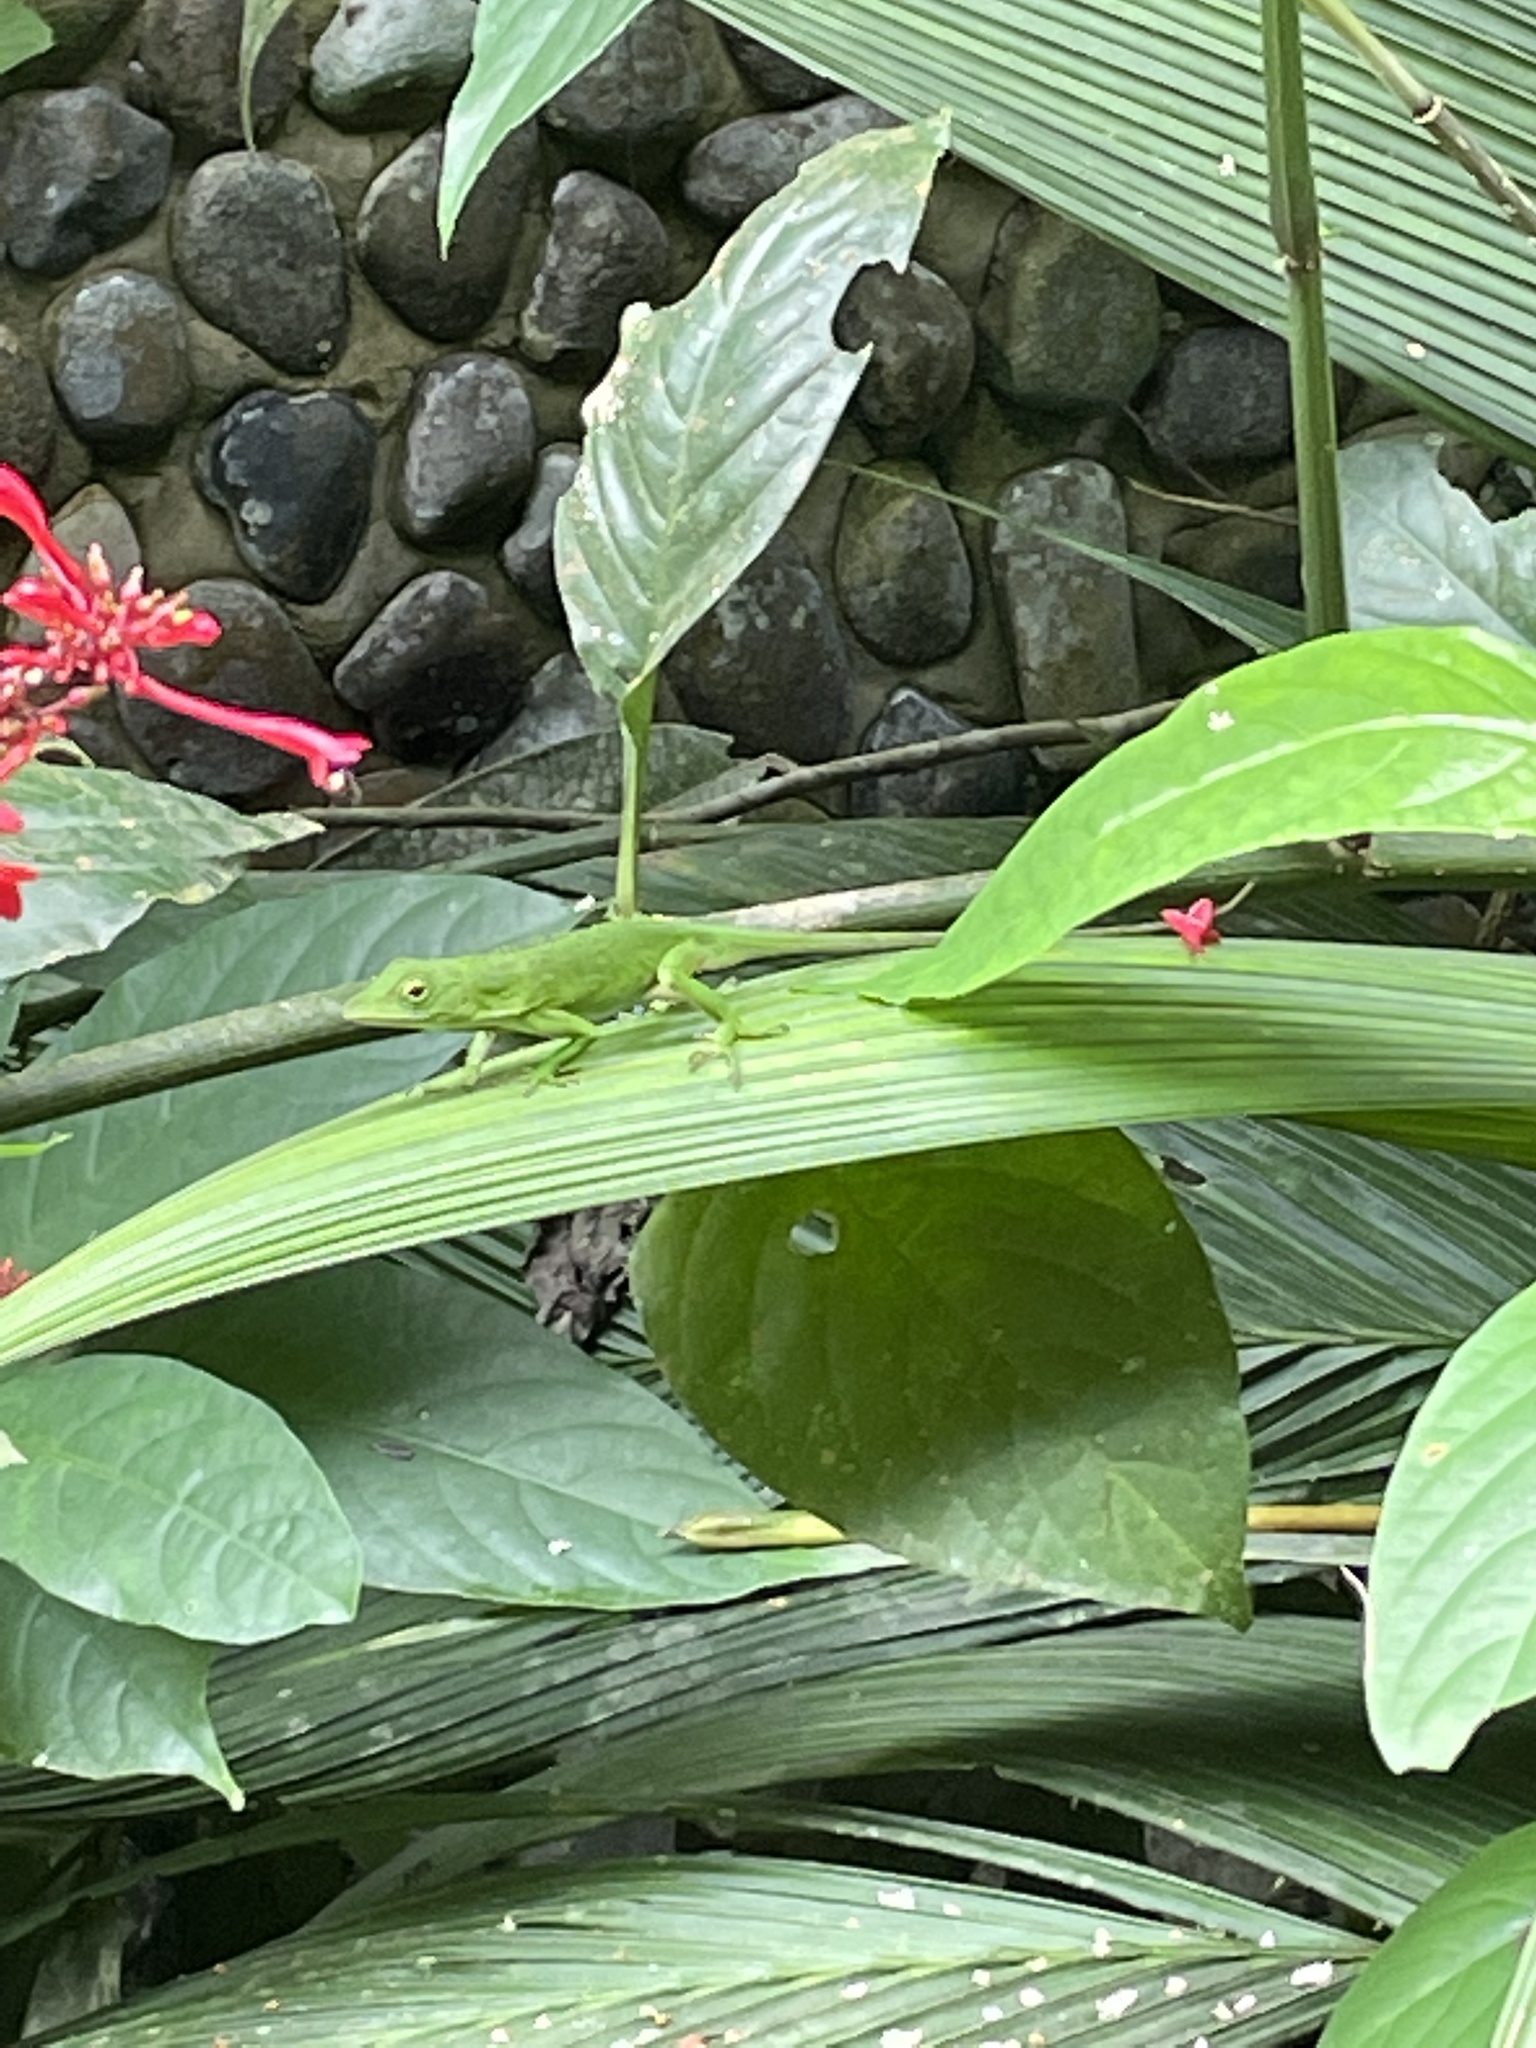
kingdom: Animalia
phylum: Chordata
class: Squamata
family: Dactyloidae
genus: Anolis
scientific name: Anolis biporcatus
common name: Giant green anole
